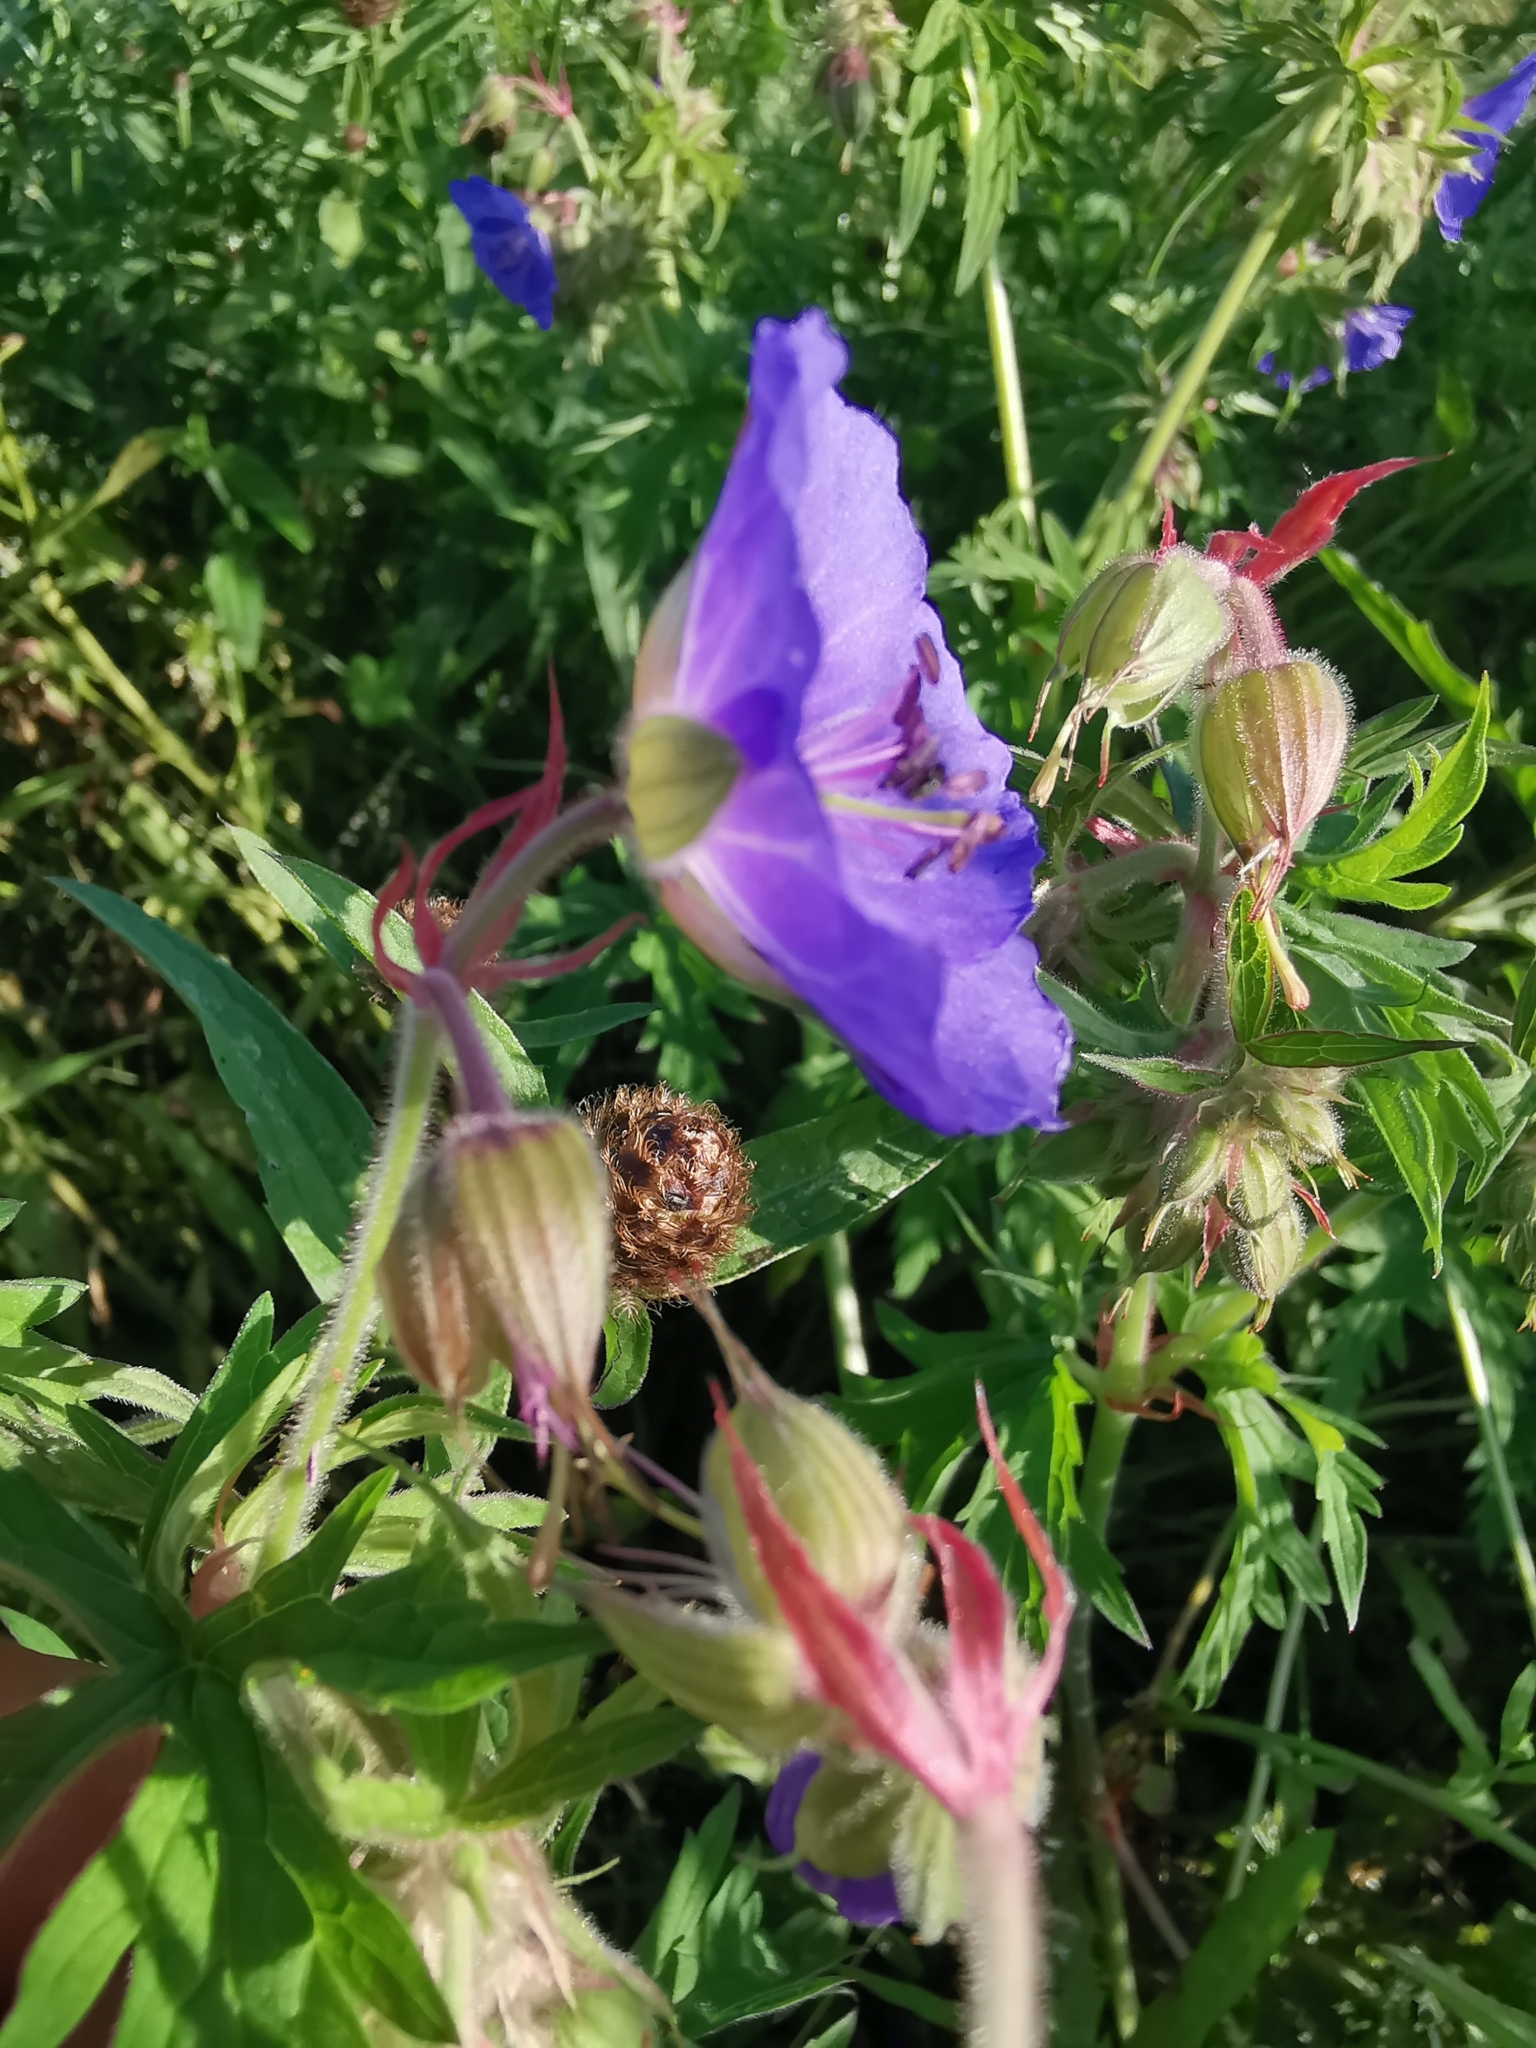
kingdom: Plantae
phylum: Tracheophyta
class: Magnoliopsida
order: Geraniales
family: Geraniaceae
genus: Geranium
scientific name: Geranium pratense
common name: Meadow crane's-bill
